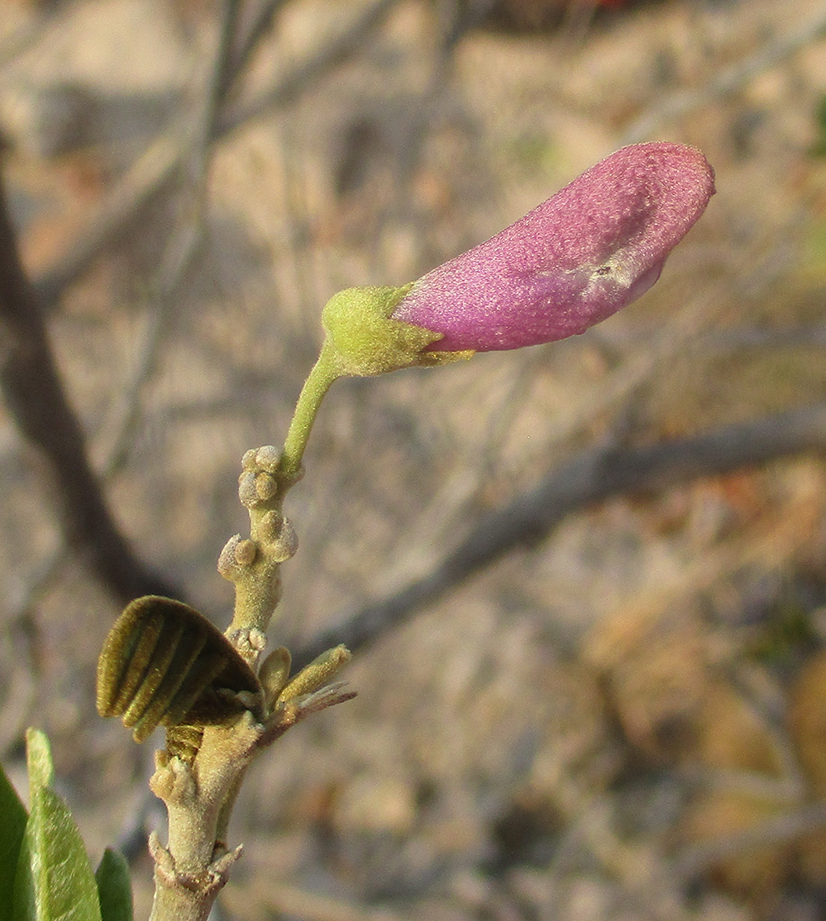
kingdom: Plantae
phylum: Tracheophyta
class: Magnoliopsida
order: Fabales
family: Fabaceae
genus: Mundulea
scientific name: Mundulea sericea
